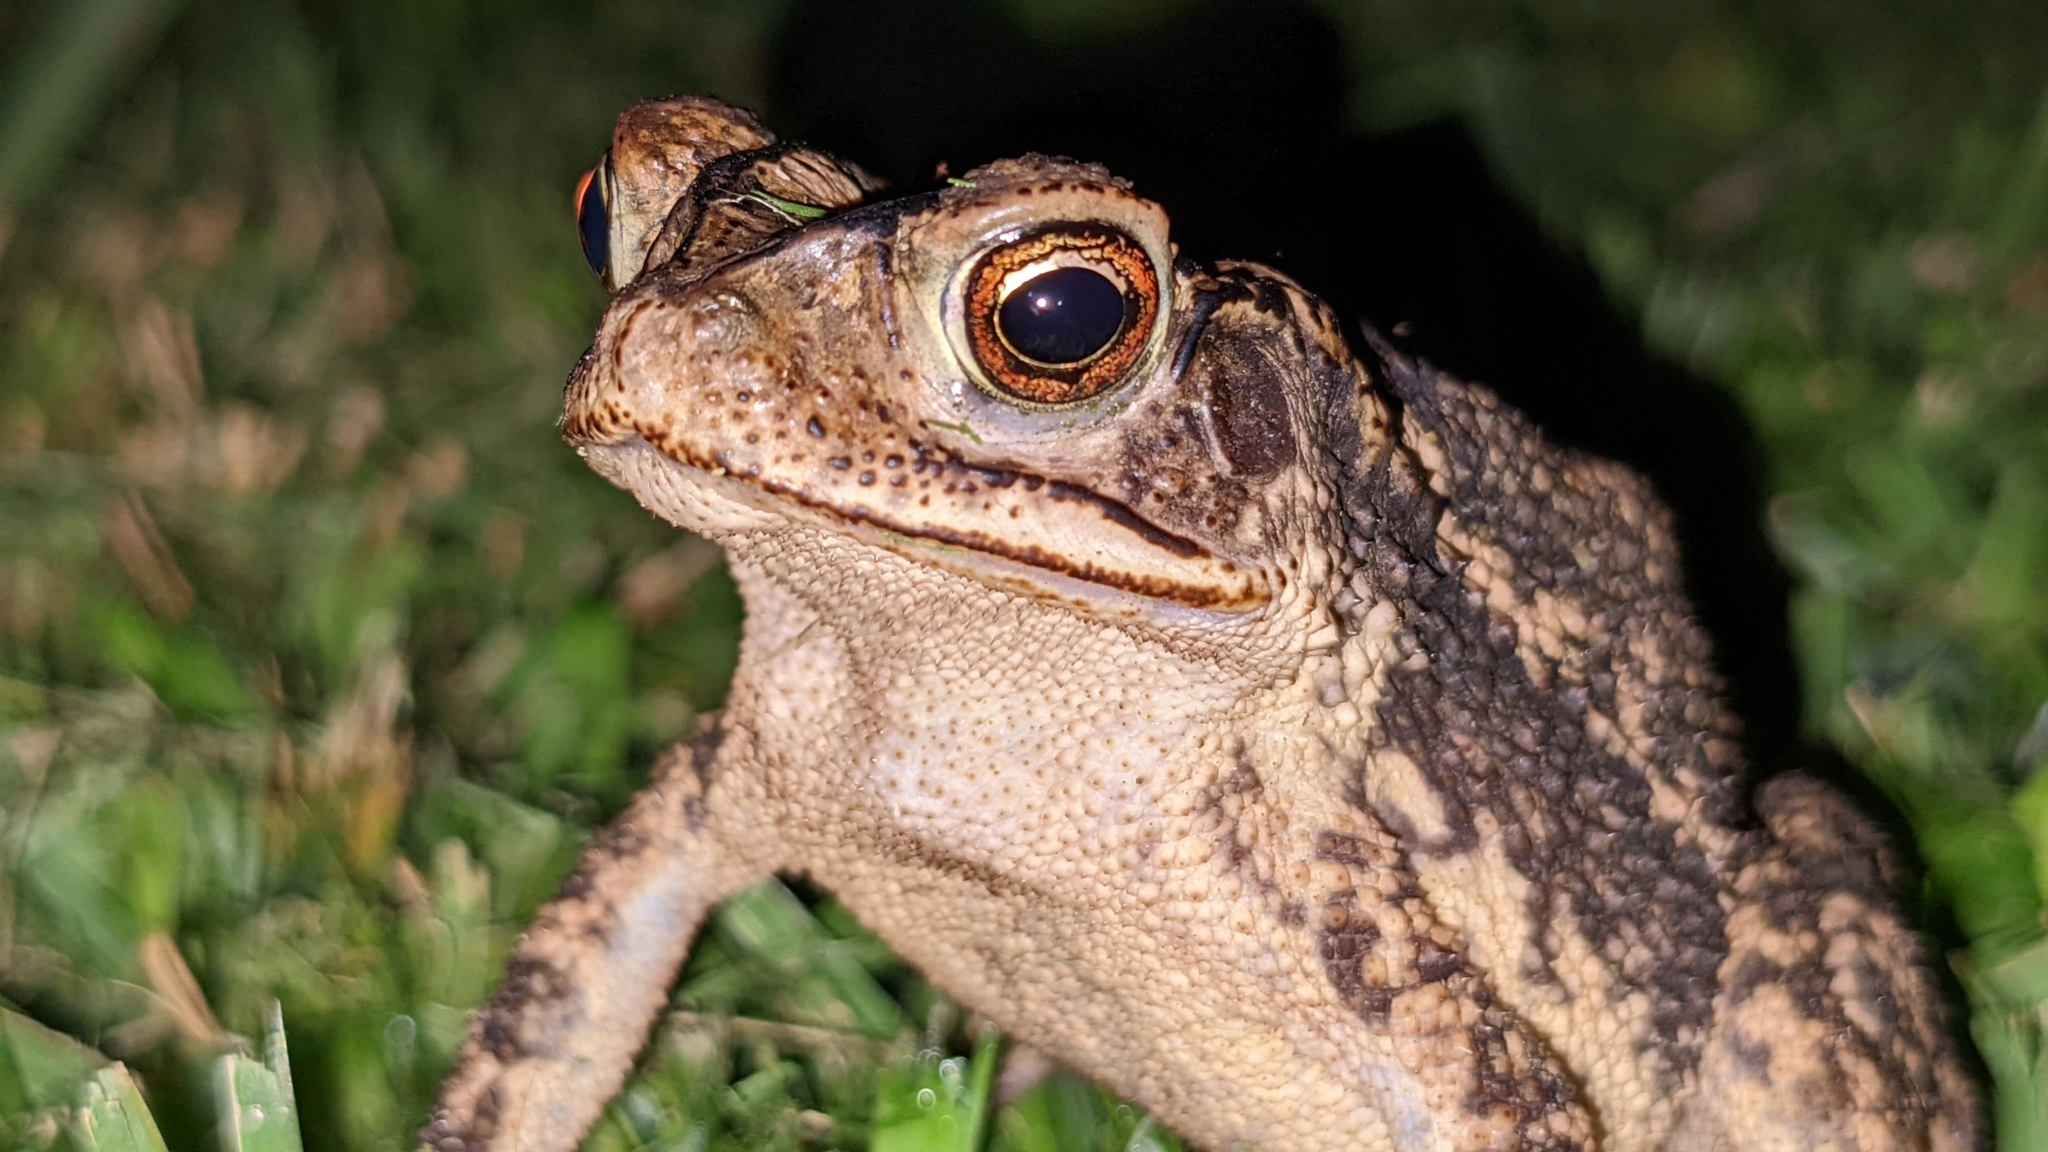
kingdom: Animalia
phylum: Chordata
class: Amphibia
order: Anura
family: Bufonidae
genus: Incilius
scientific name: Incilius nebulifer
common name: Gulf coast toad
